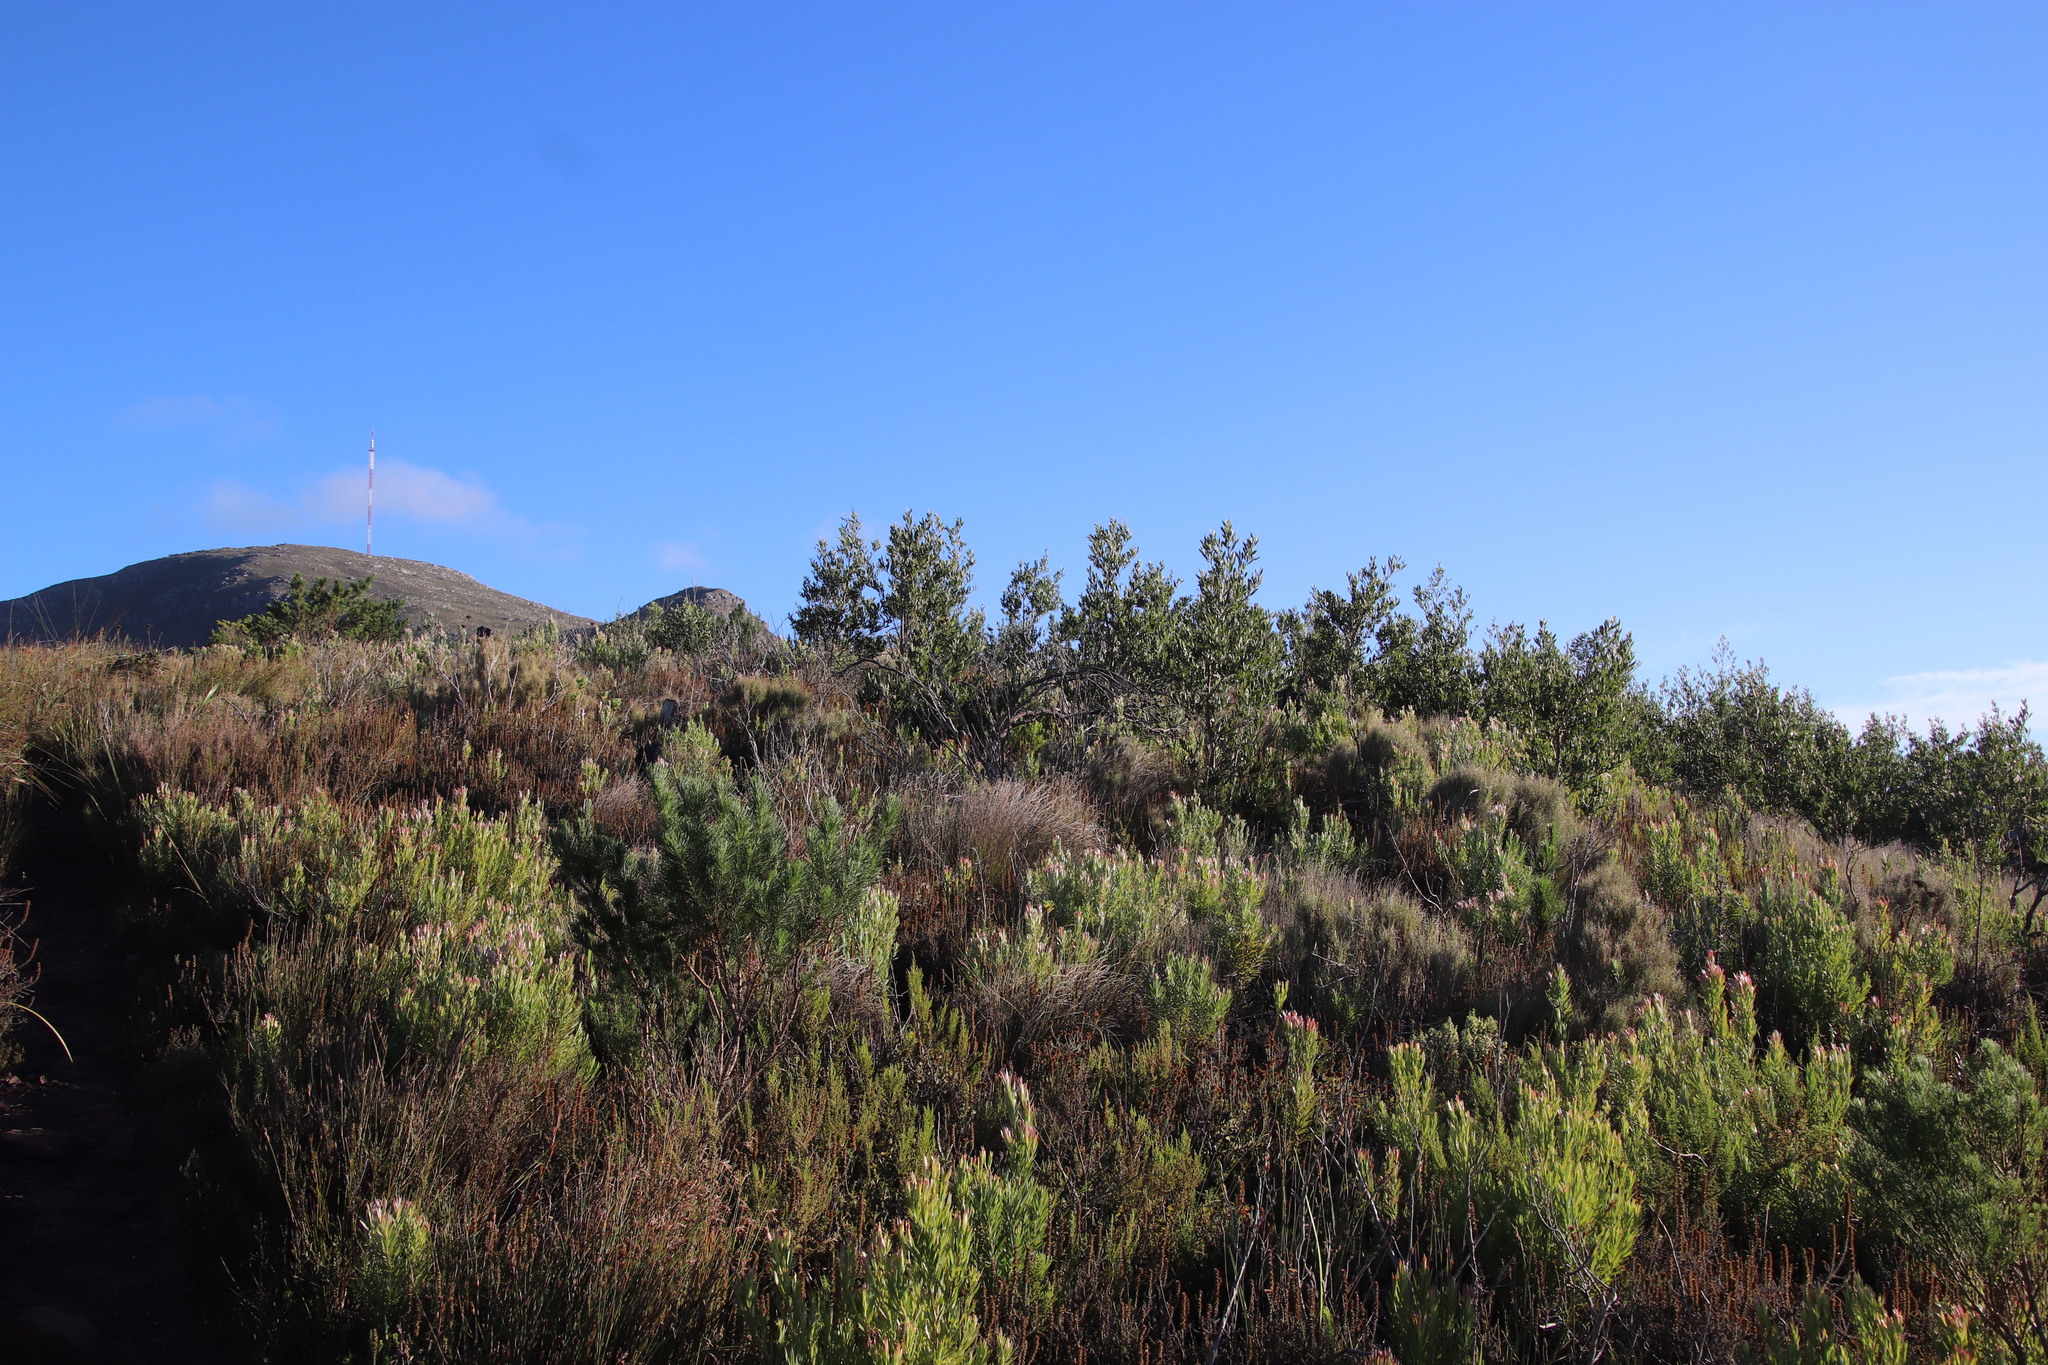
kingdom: Plantae
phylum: Tracheophyta
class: Magnoliopsida
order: Fabales
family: Fabaceae
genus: Acacia
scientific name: Acacia melanoxylon
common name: Blackwood
